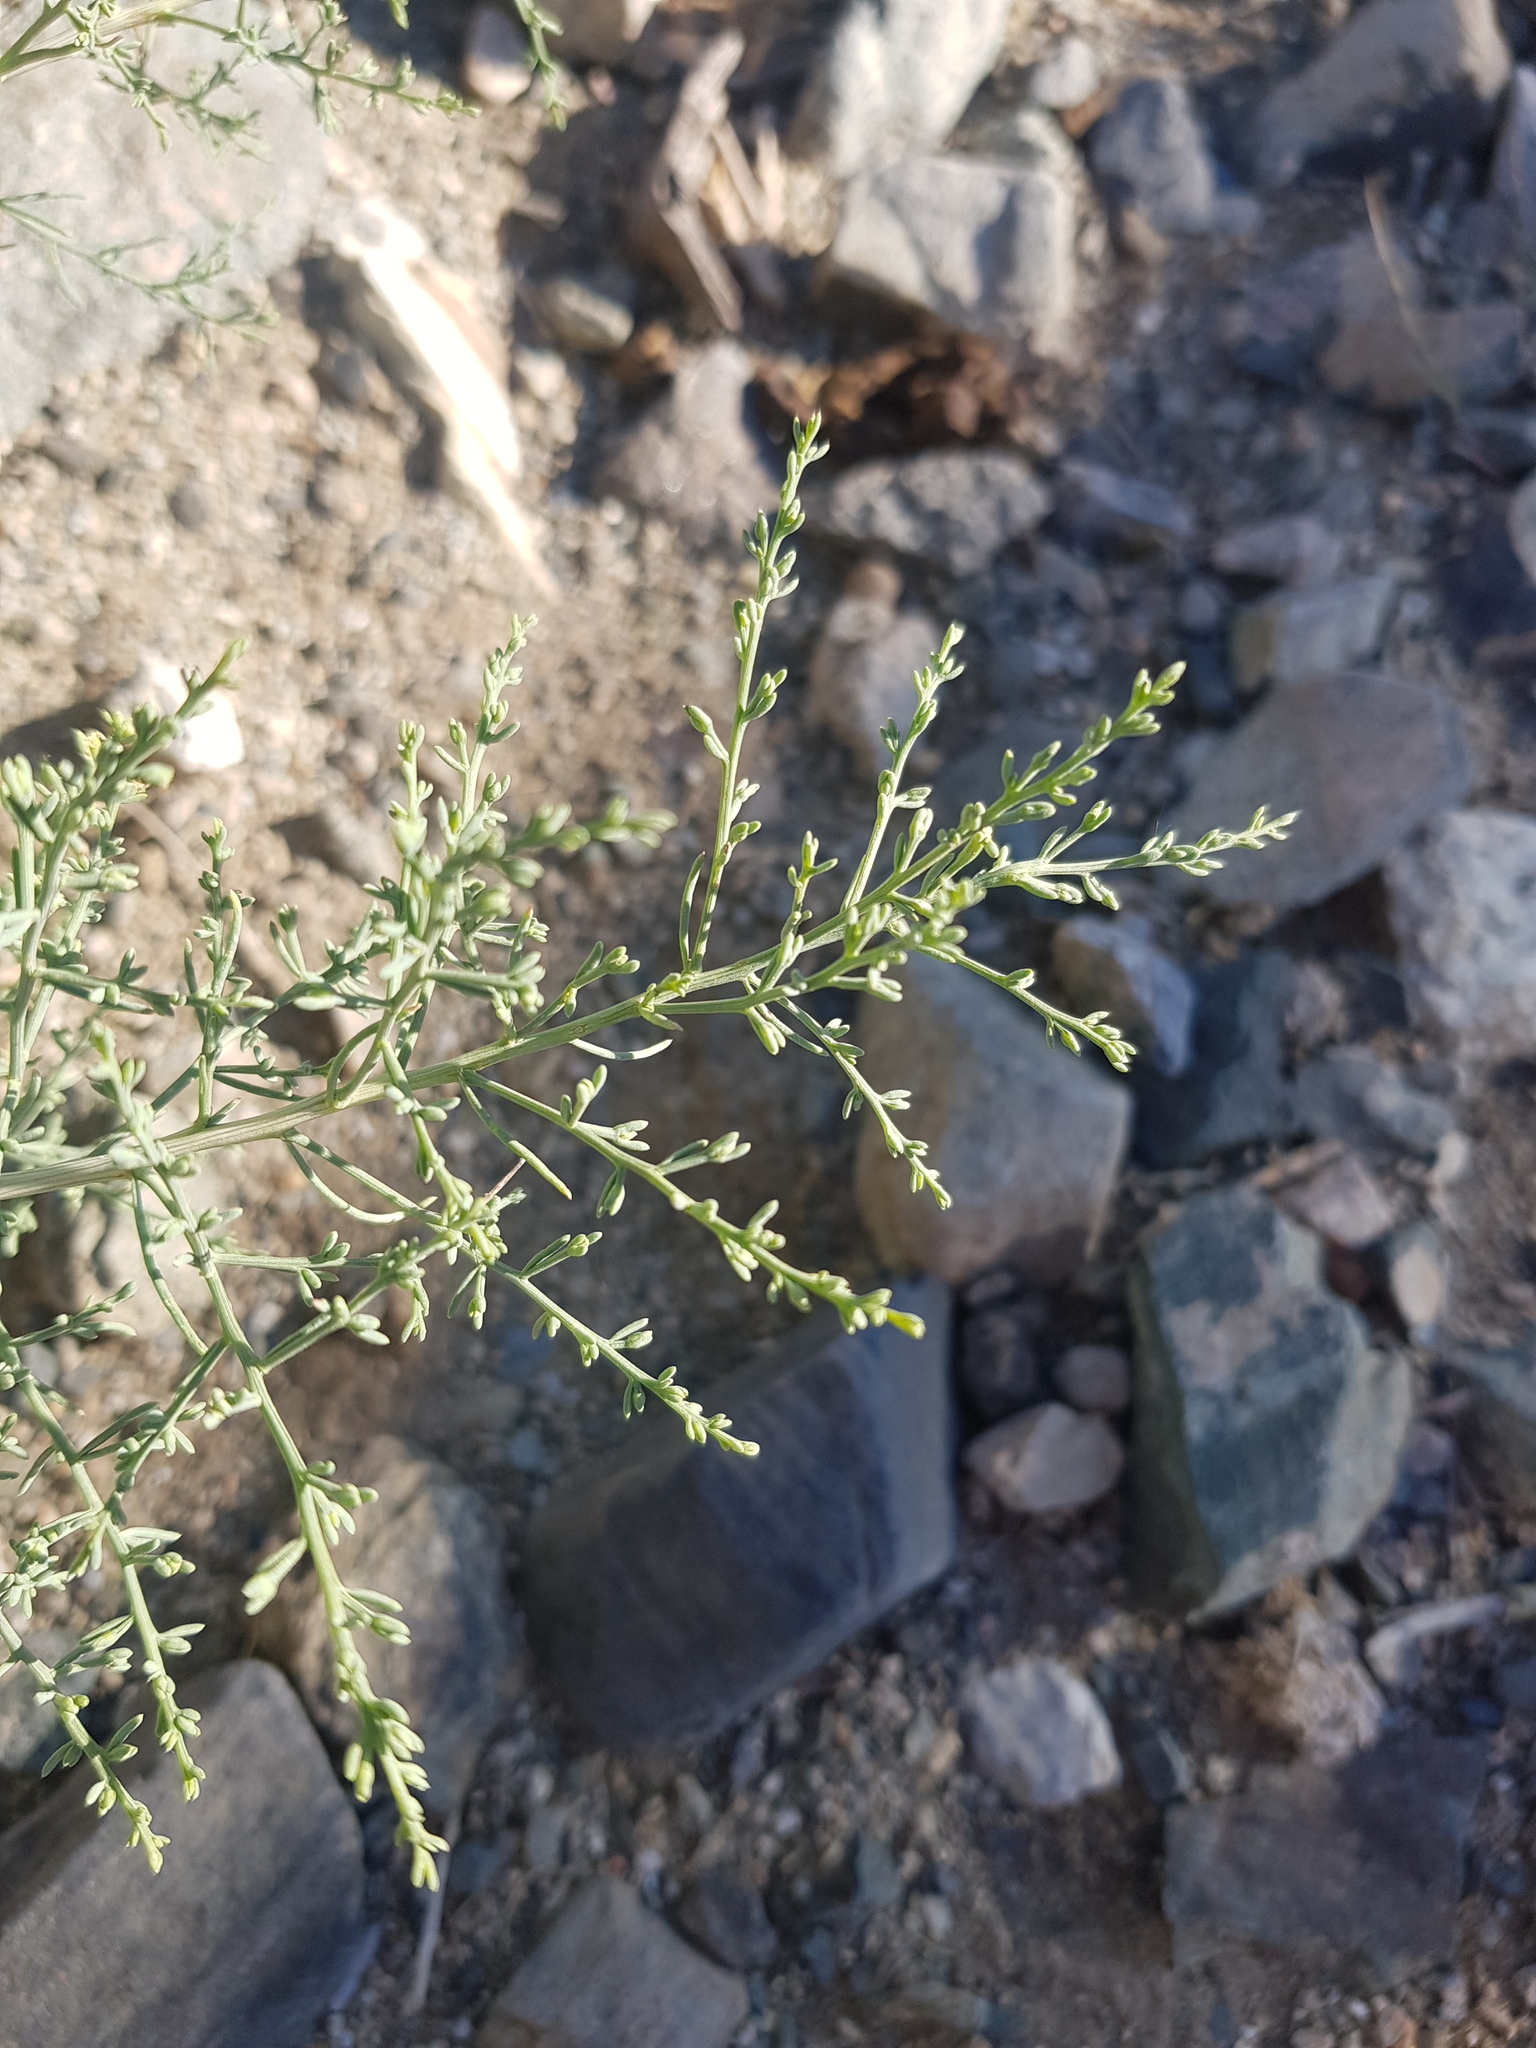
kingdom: Plantae
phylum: Tracheophyta
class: Magnoliopsida
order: Caryophyllales
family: Amaranthaceae
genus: Sympegma
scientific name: Sympegma regelii
